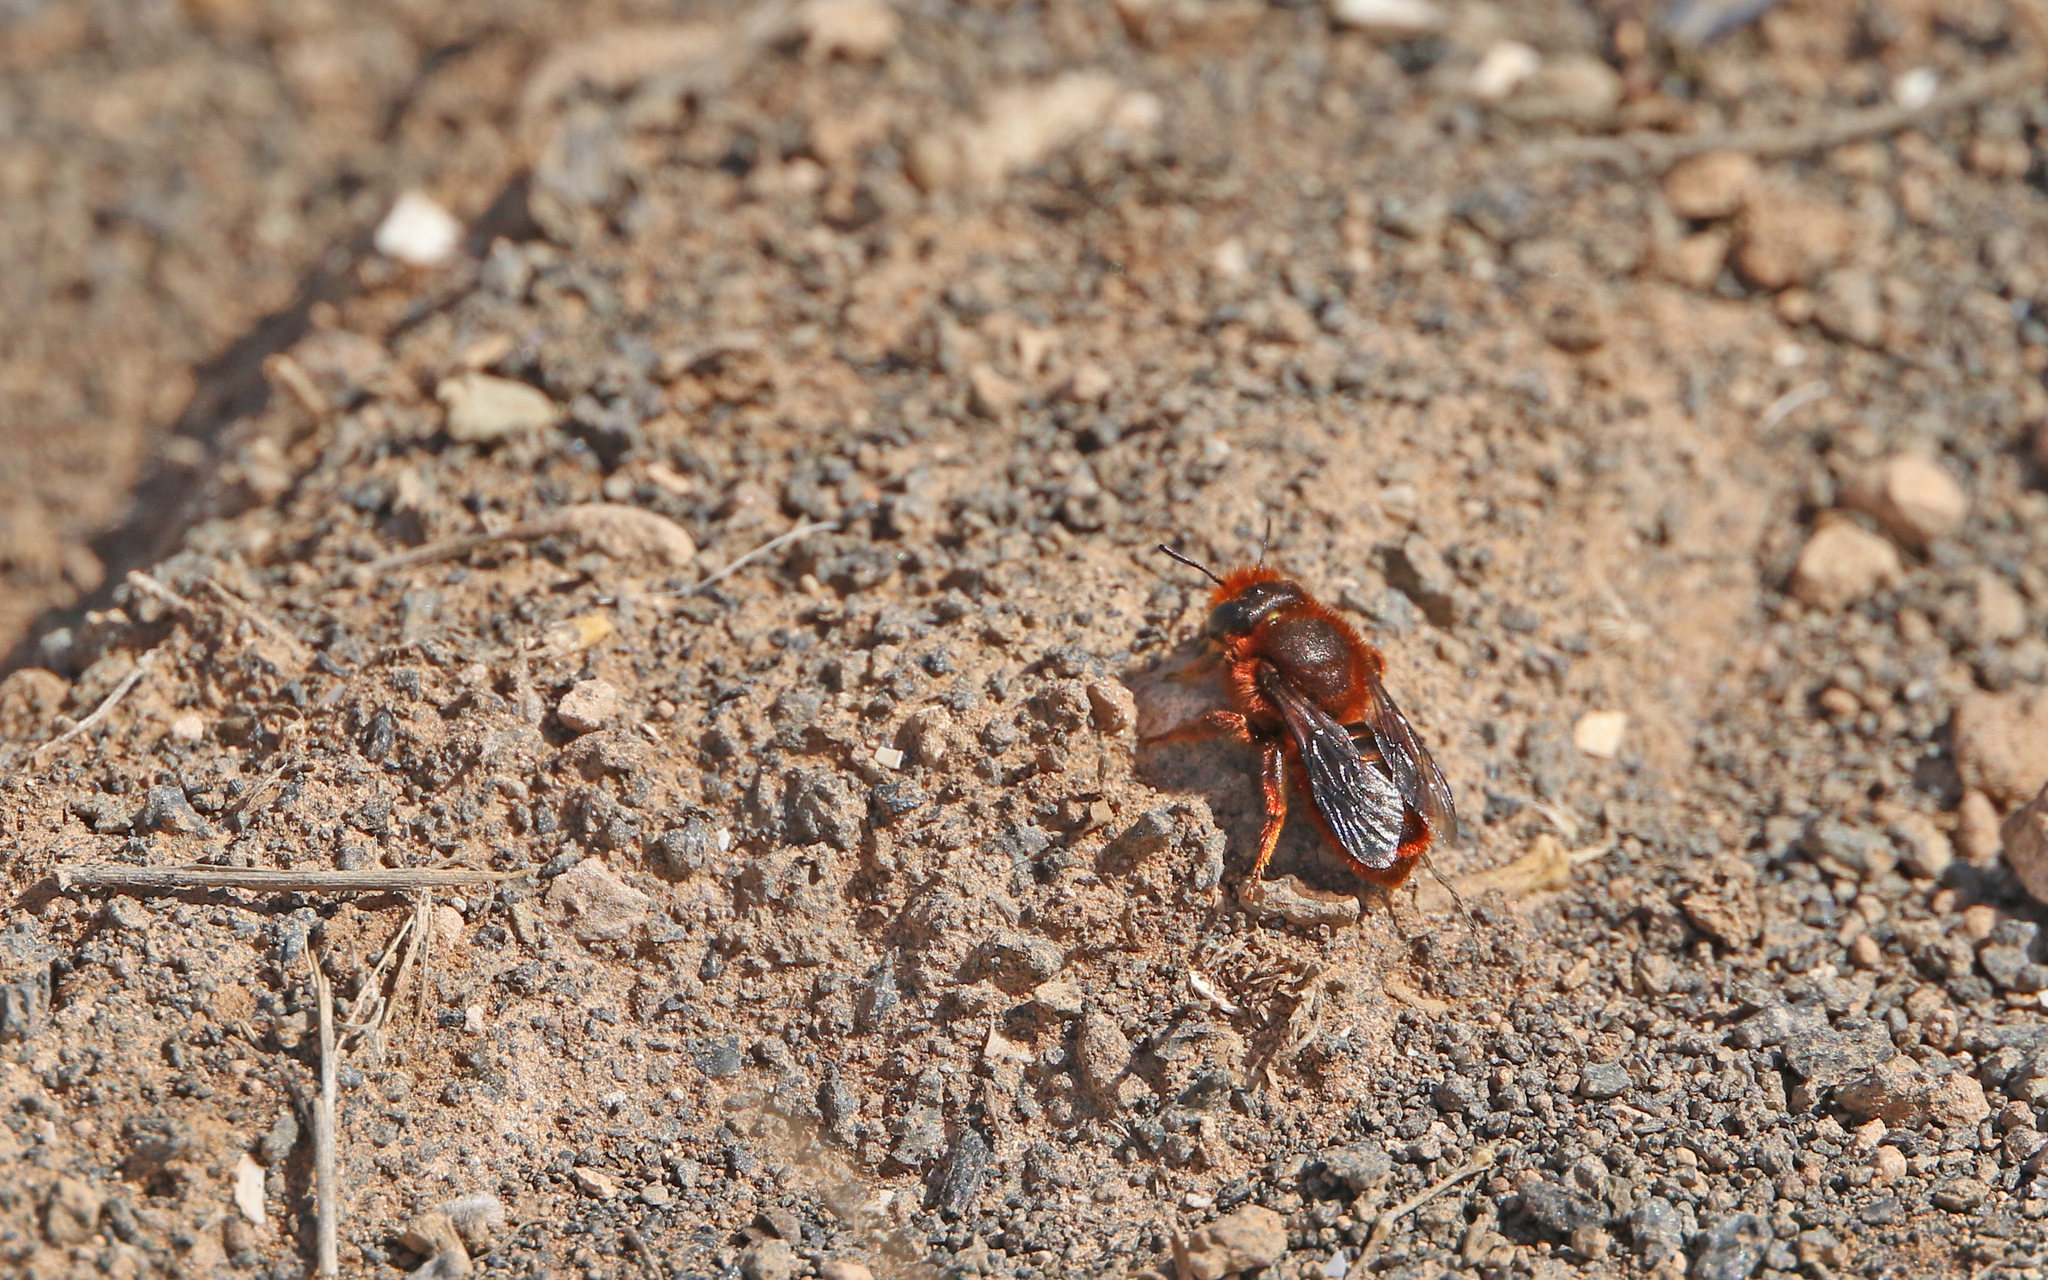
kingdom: Animalia
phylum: Arthropoda
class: Insecta
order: Hymenoptera
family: Megachilidae
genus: Osmia
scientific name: Osmia cinnabarina
